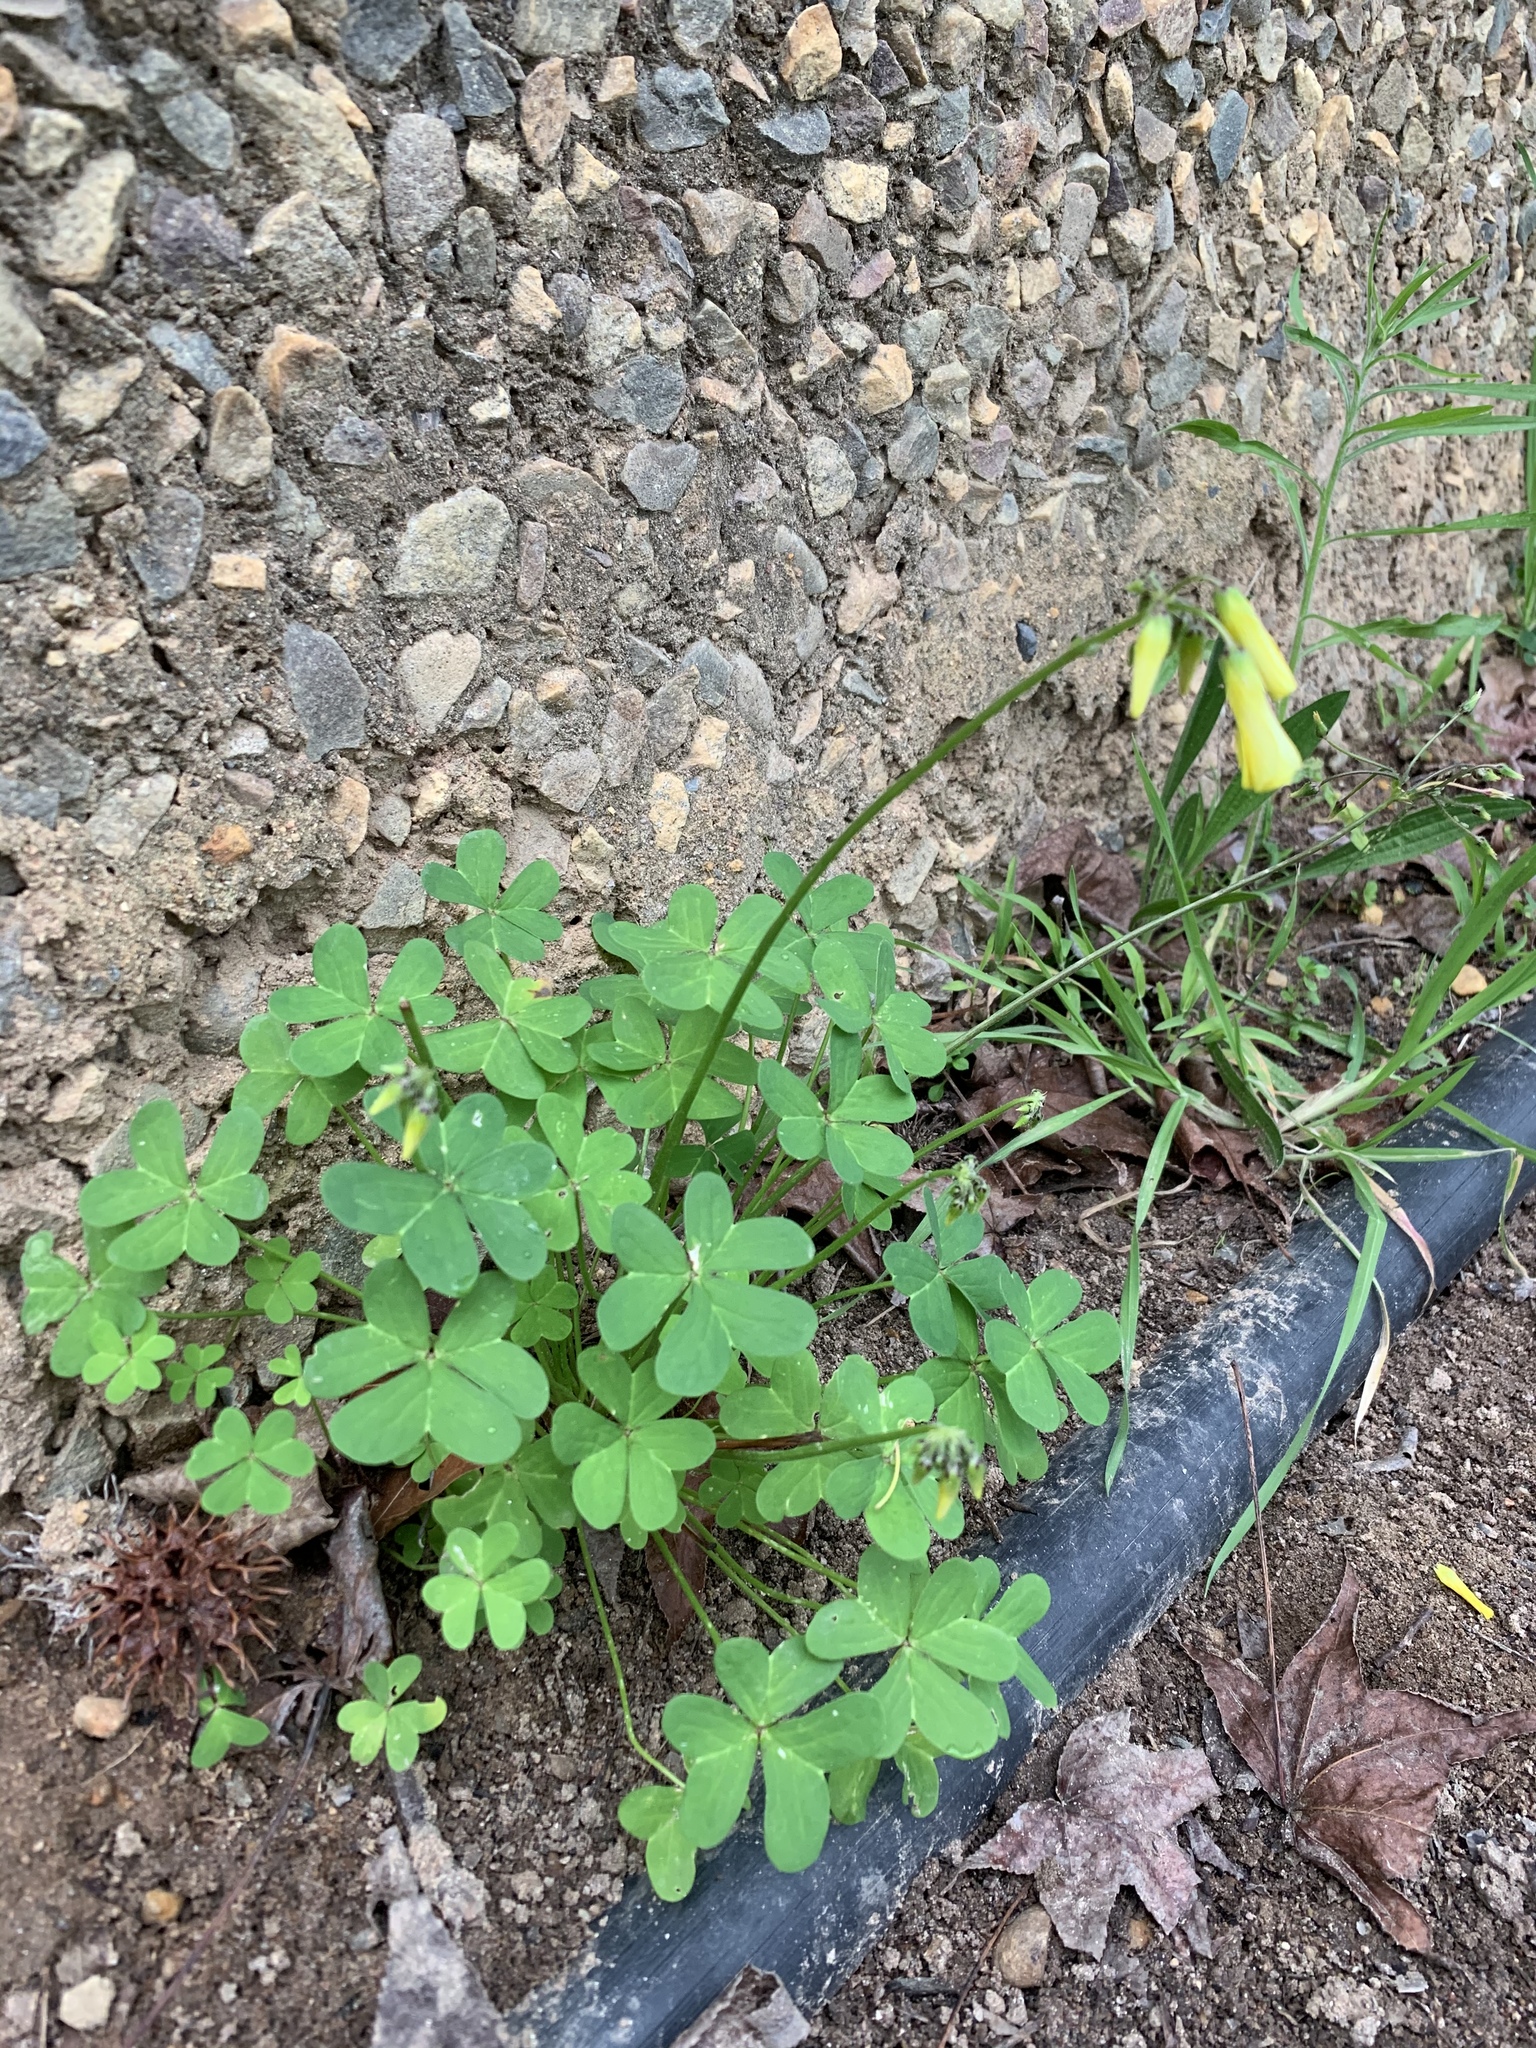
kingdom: Plantae
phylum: Tracheophyta
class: Magnoliopsida
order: Oxalidales
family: Oxalidaceae
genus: Oxalis
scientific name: Oxalis pes-caprae
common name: Bermuda-buttercup
